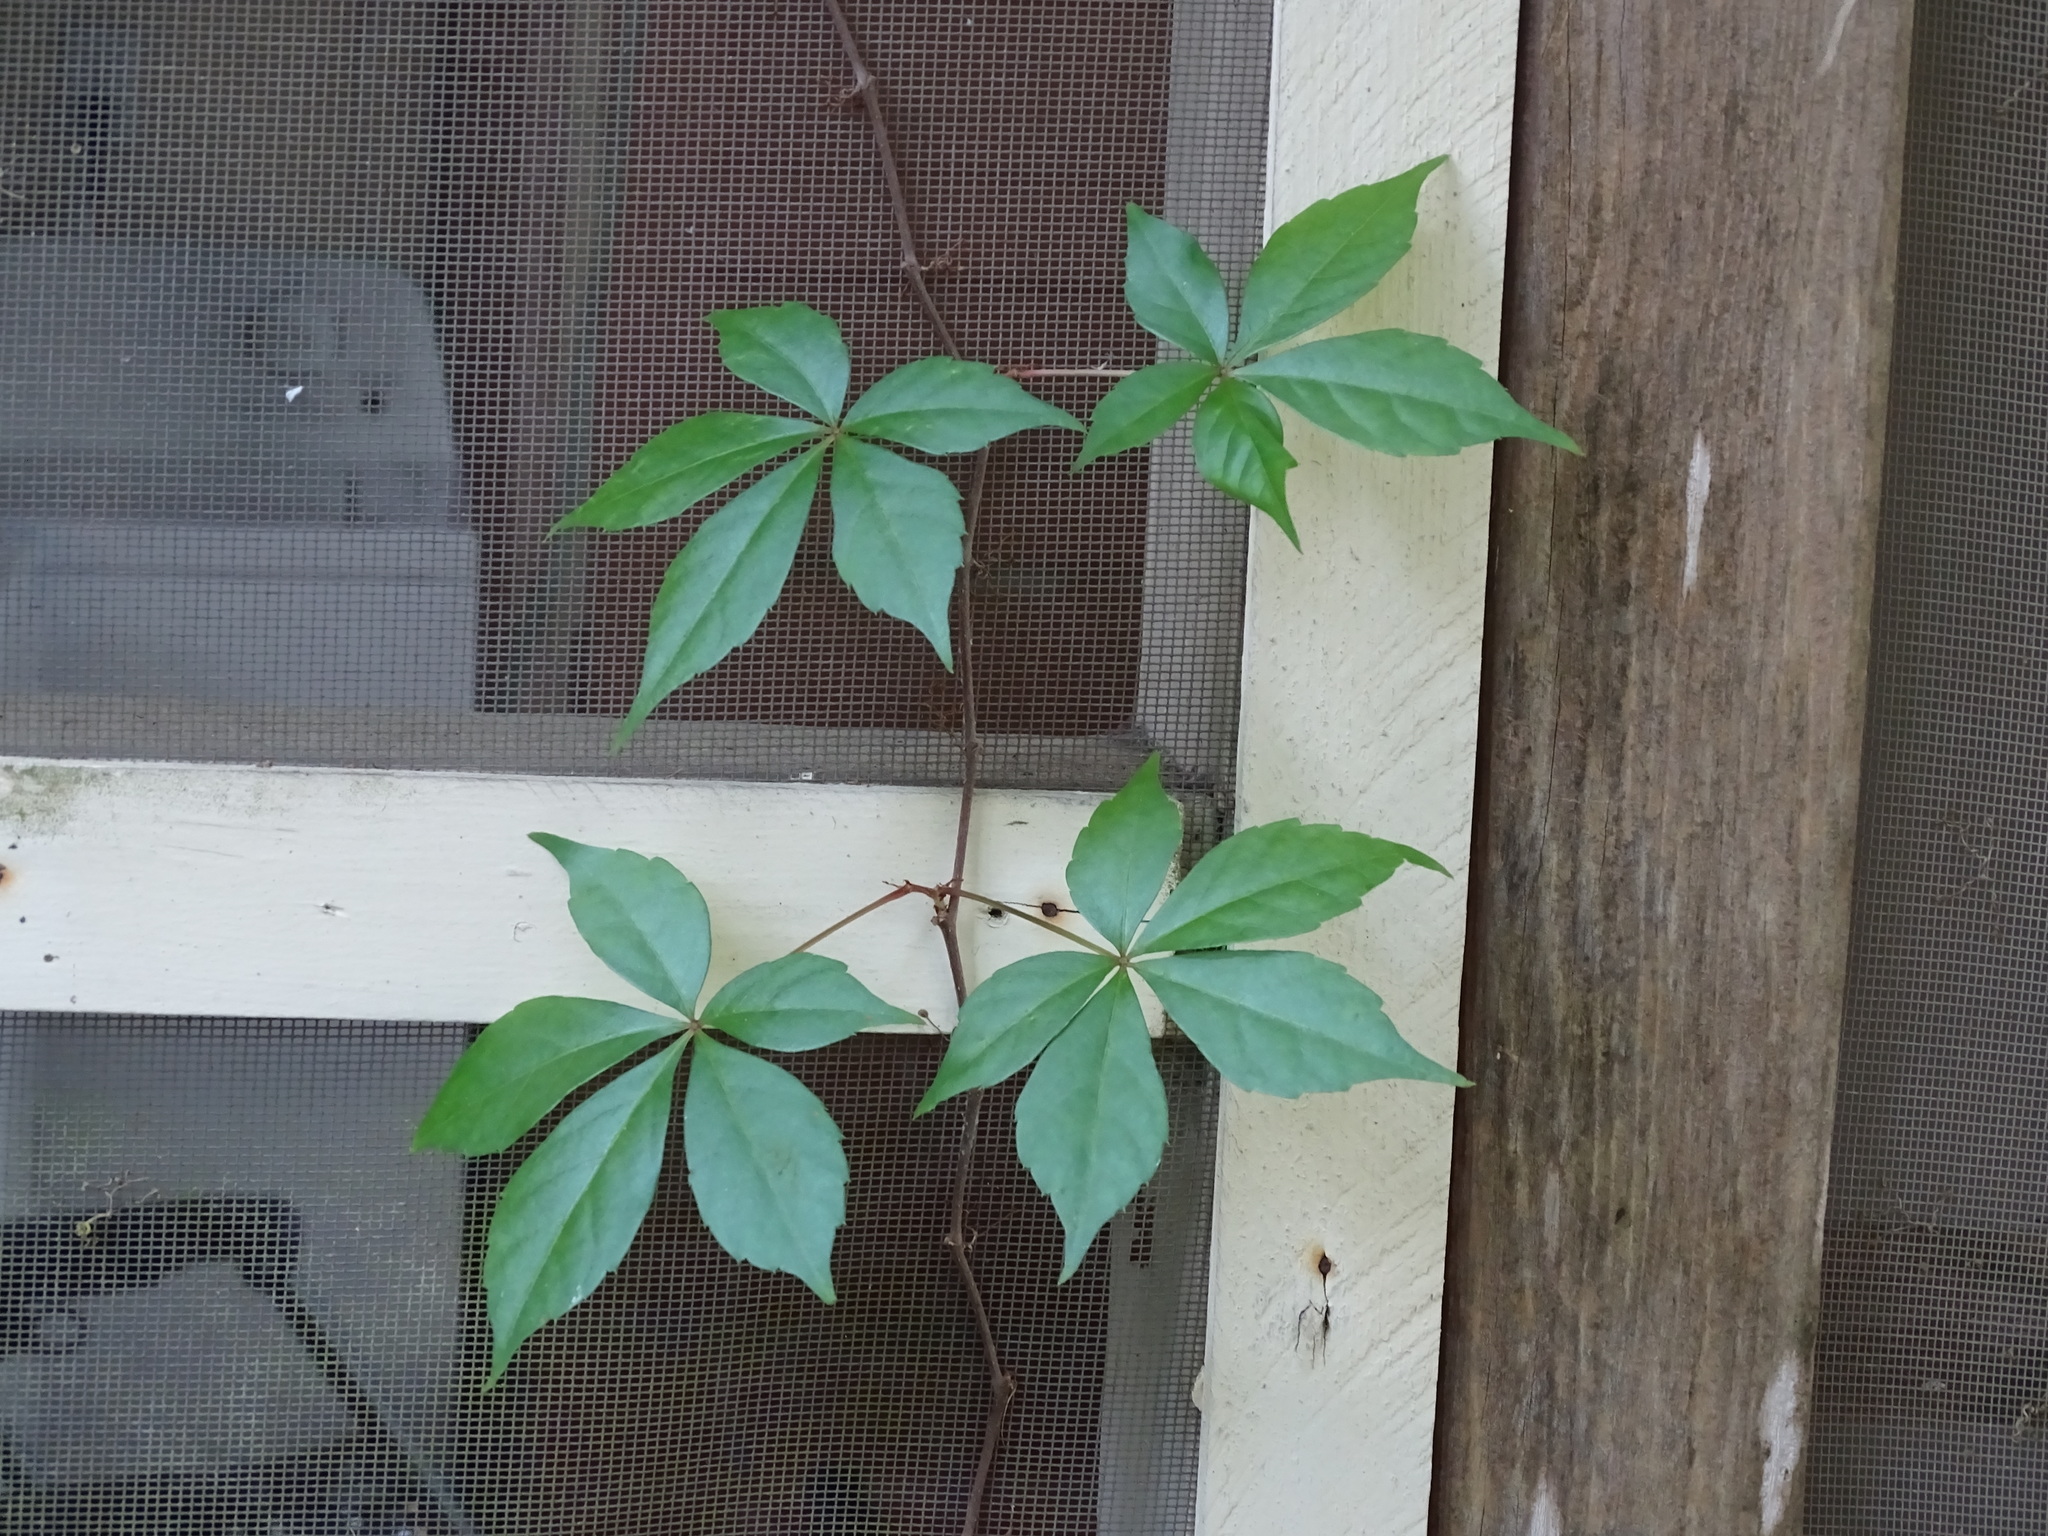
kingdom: Plantae
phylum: Tracheophyta
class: Magnoliopsida
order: Vitales
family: Vitaceae
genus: Parthenocissus
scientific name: Parthenocissus quinquefolia
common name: Virginia-creeper
